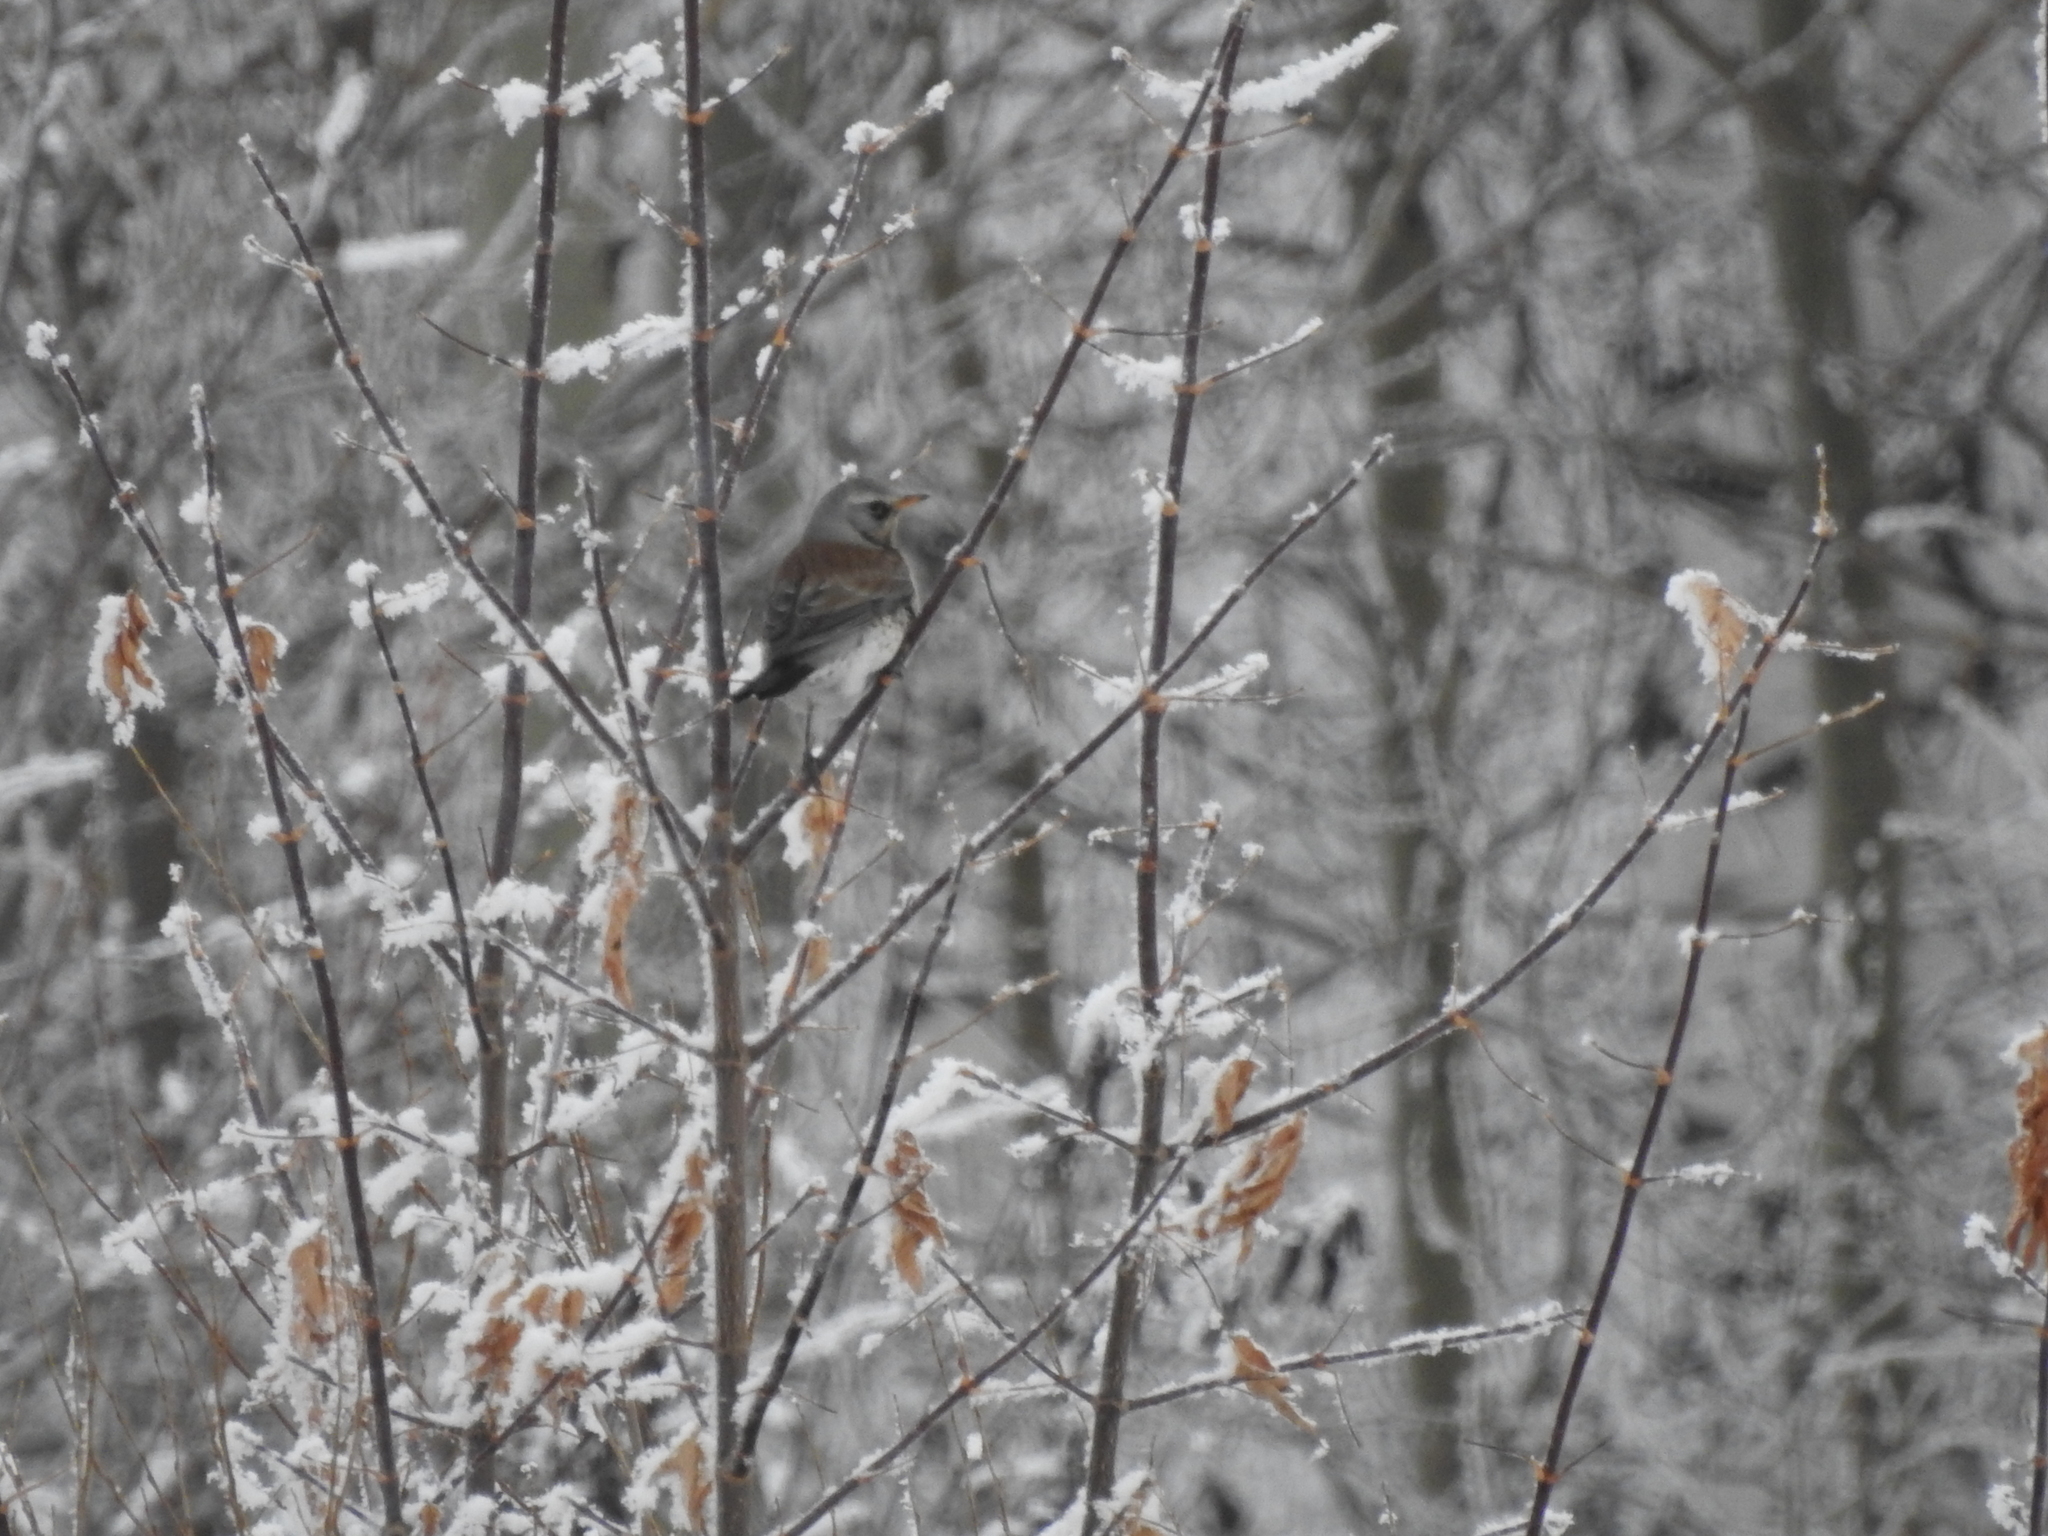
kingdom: Animalia
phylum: Chordata
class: Aves
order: Passeriformes
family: Turdidae
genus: Turdus
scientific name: Turdus pilaris
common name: Fieldfare
